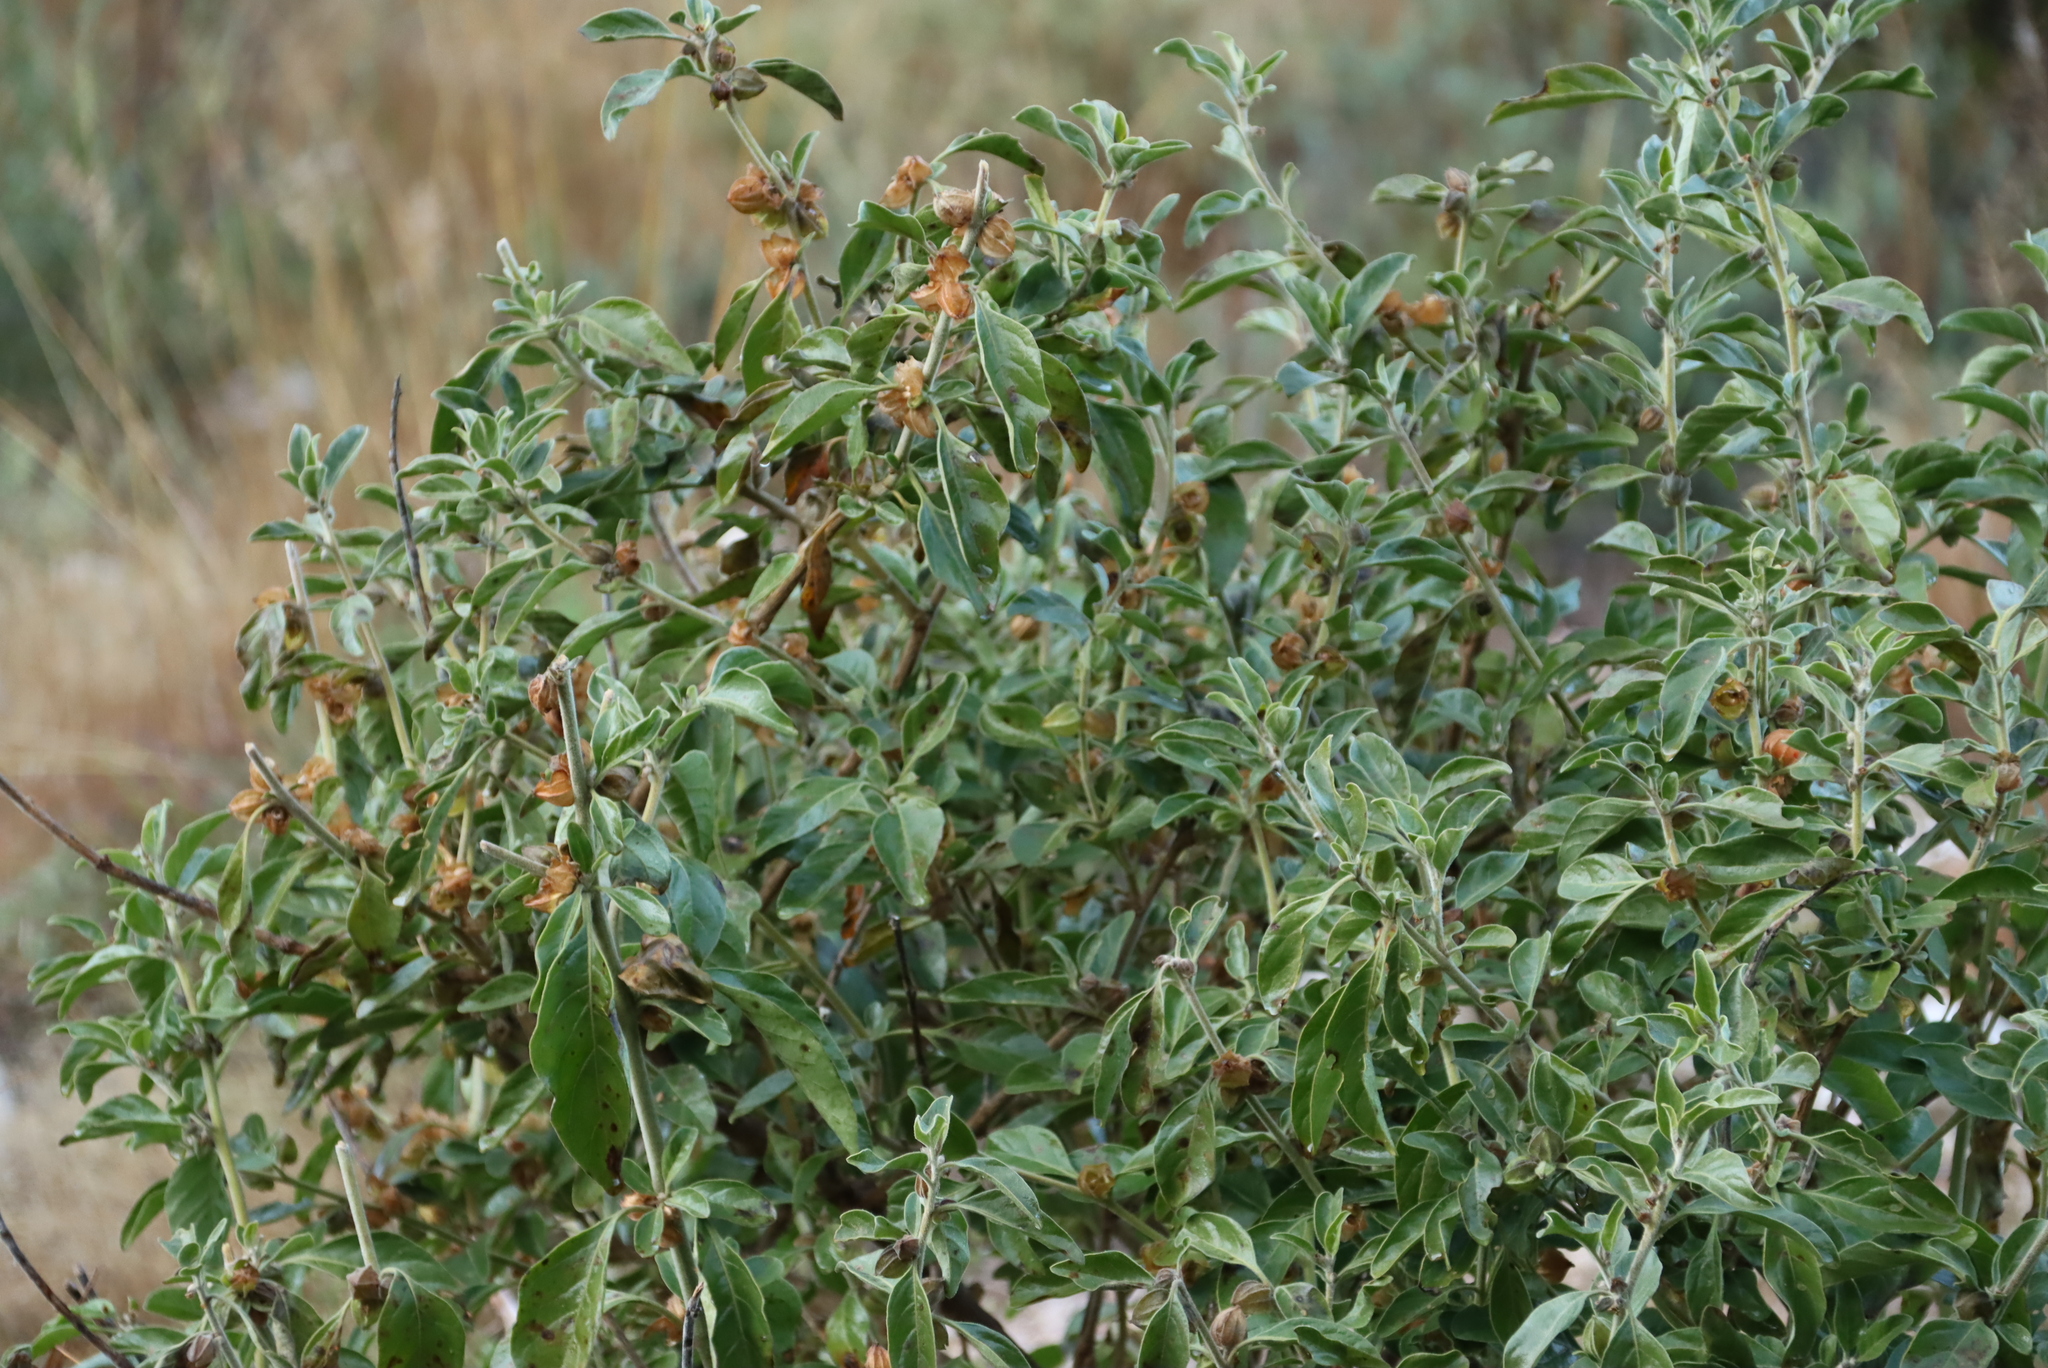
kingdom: Plantae
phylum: Tracheophyta
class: Magnoliopsida
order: Solanales
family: Solanaceae
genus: Withania
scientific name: Withania somnifera
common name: Winter-cherry
